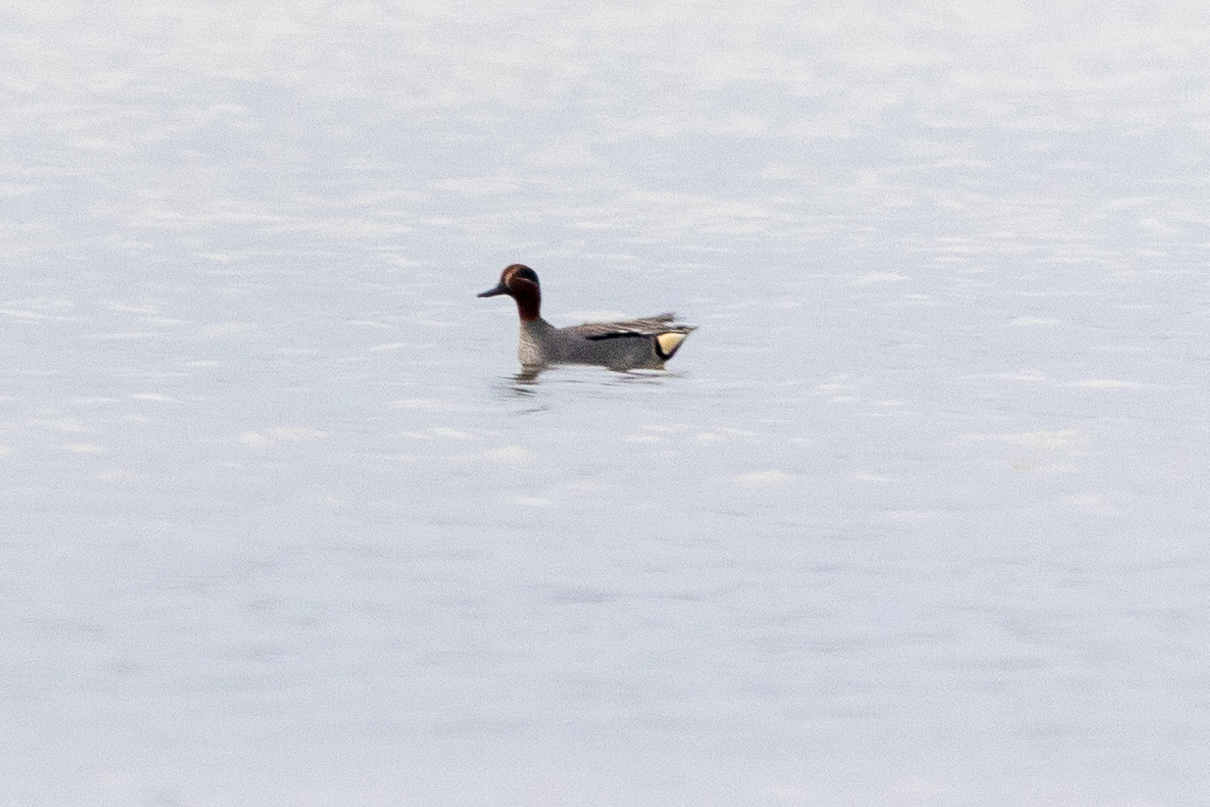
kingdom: Animalia
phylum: Chordata
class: Aves
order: Anseriformes
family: Anatidae
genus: Anas
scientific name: Anas crecca
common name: Eurasian teal
